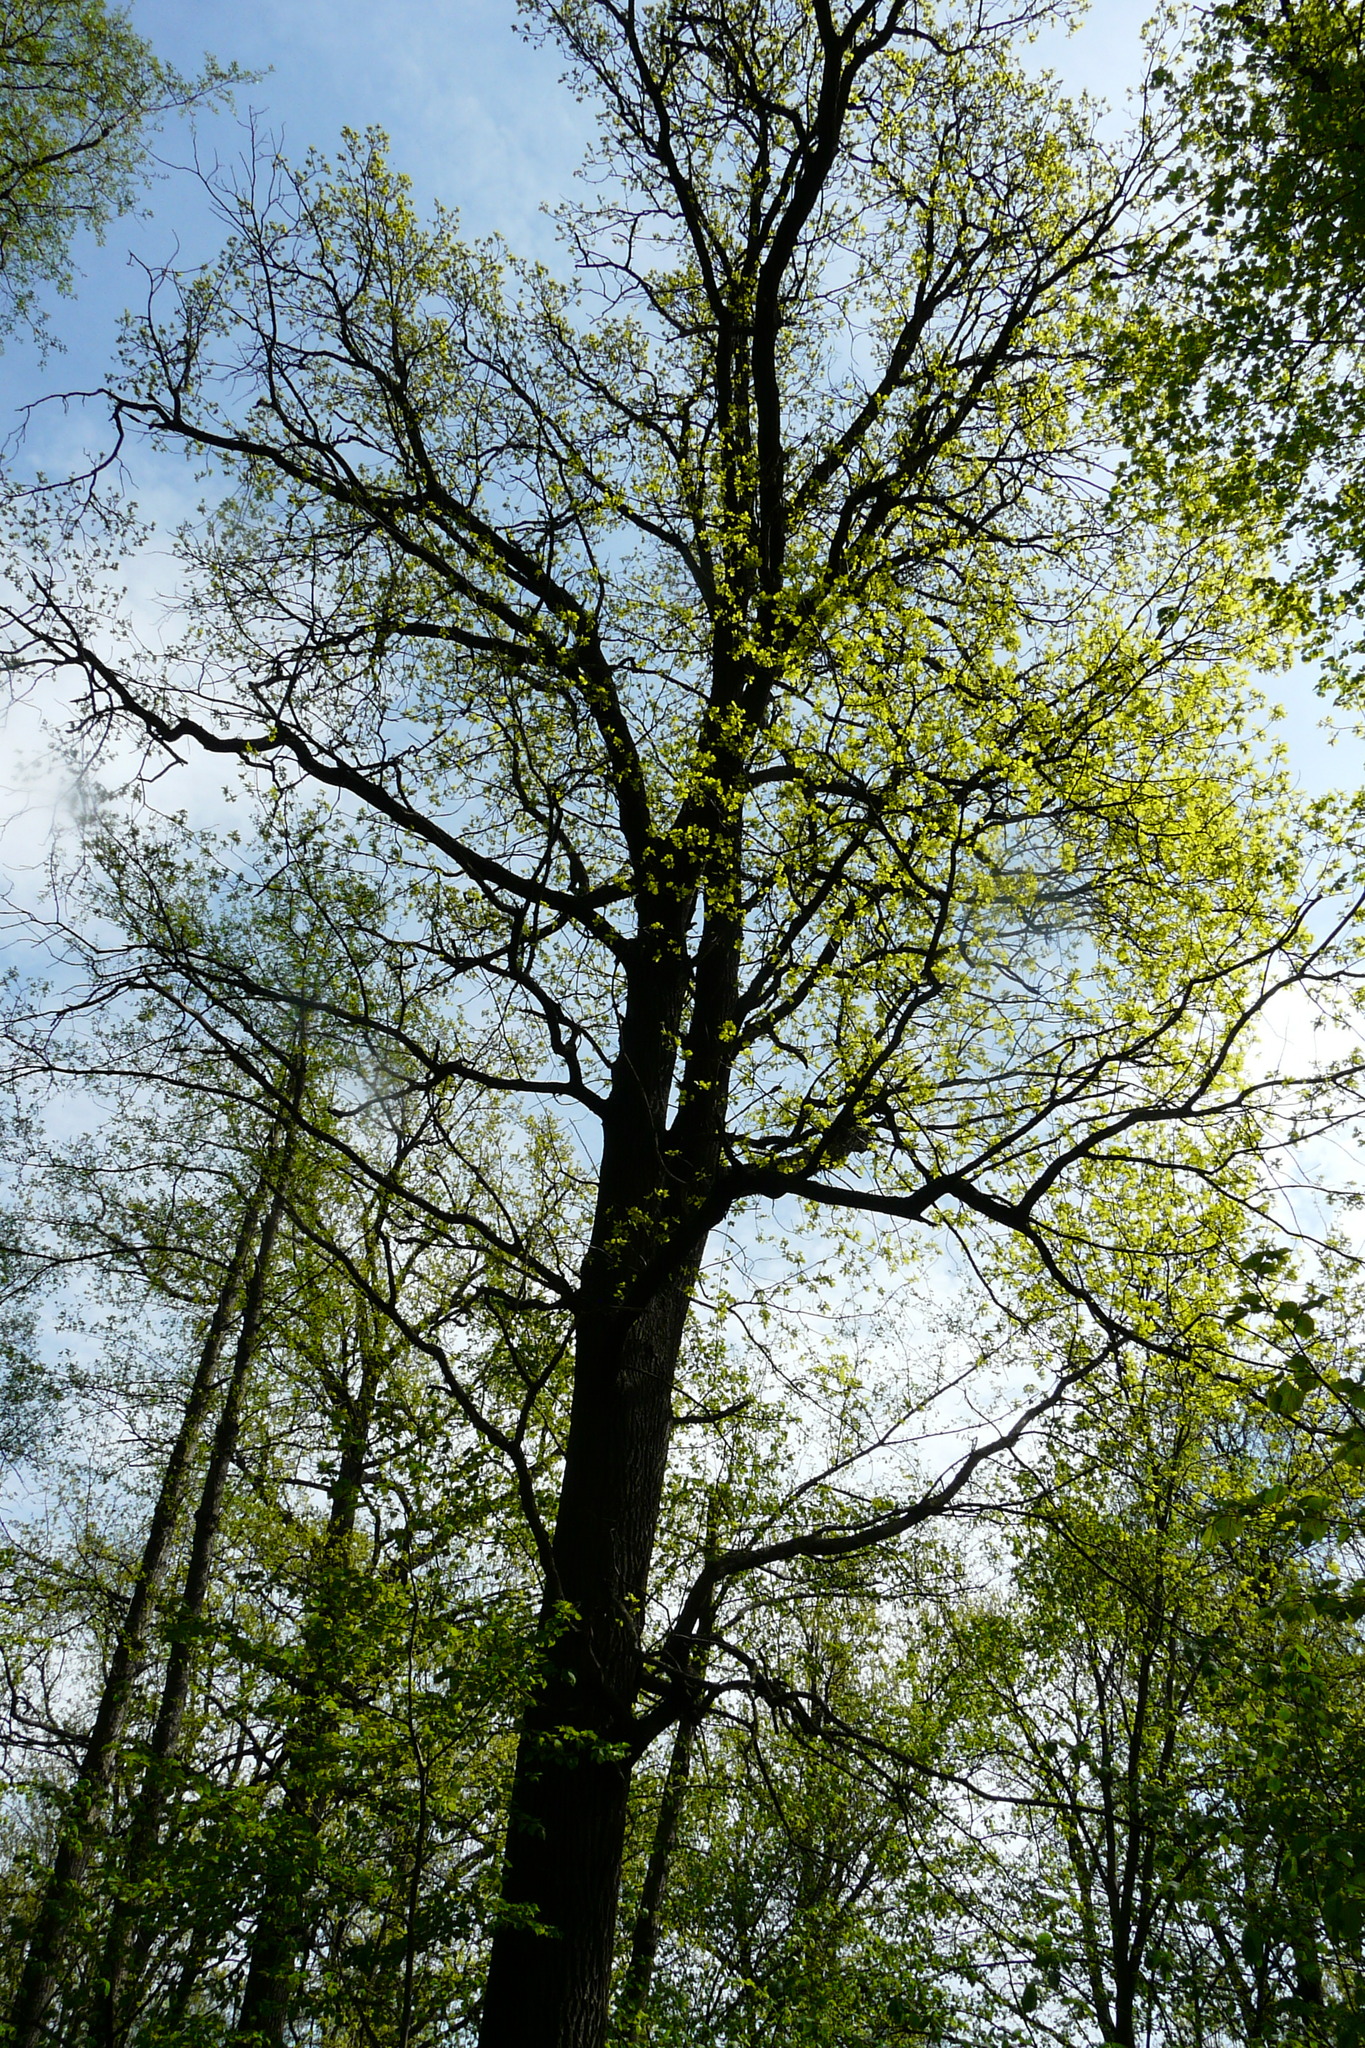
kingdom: Plantae
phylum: Tracheophyta
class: Magnoliopsida
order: Fagales
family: Fagaceae
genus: Quercus
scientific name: Quercus robur
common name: Pedunculate oak
